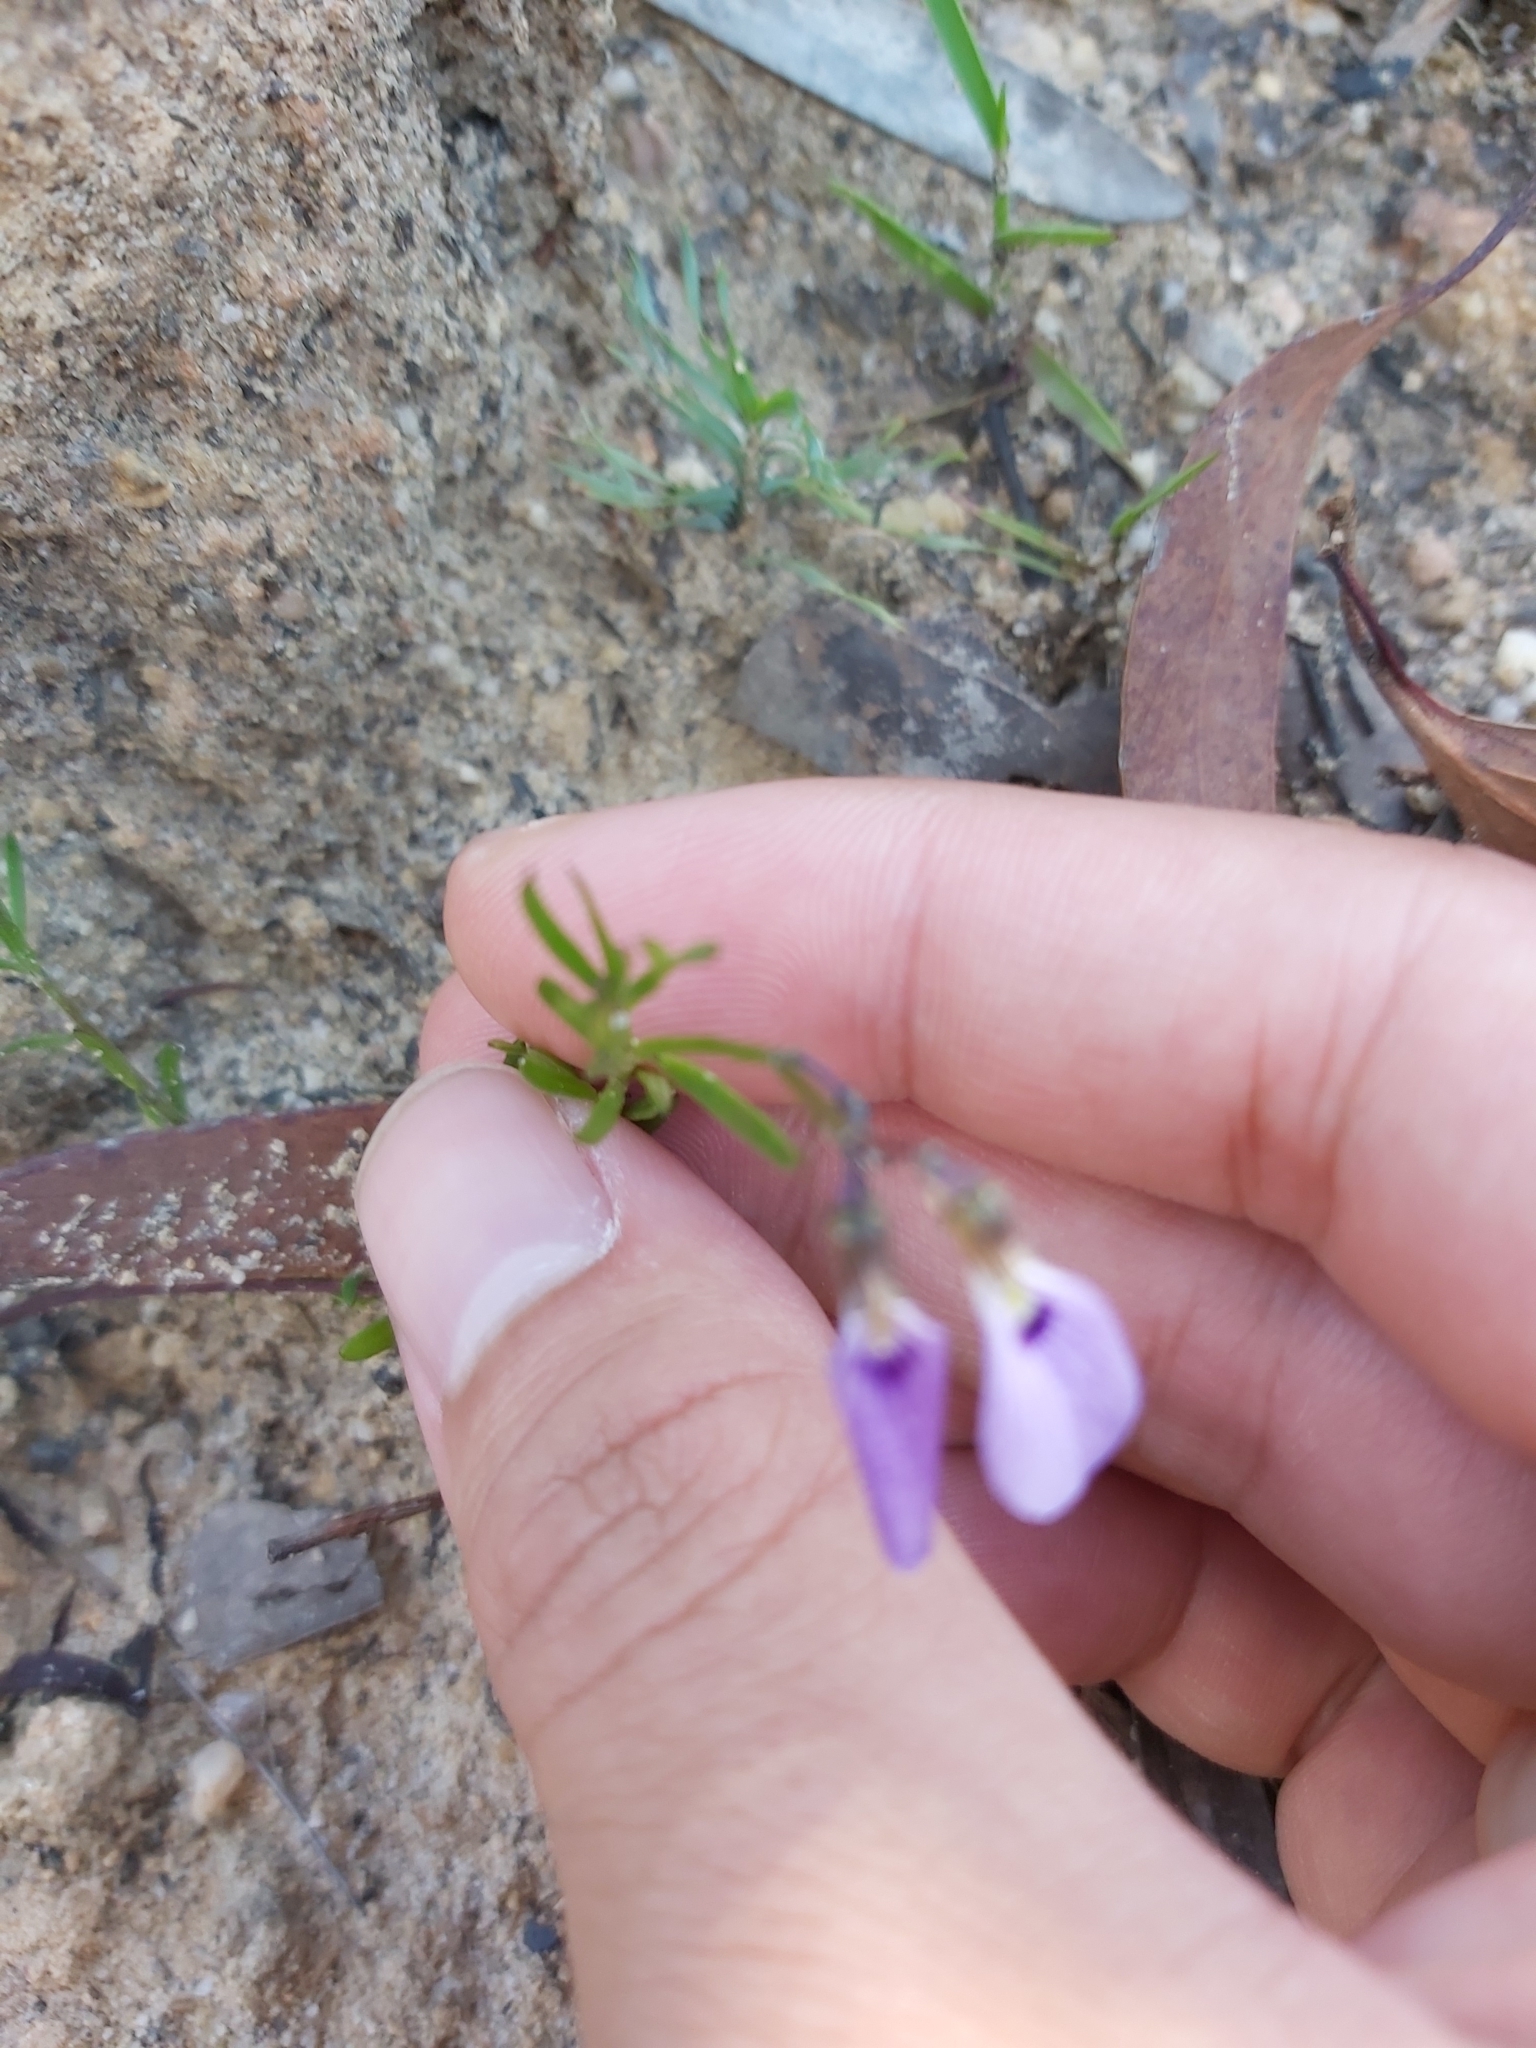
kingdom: Plantae
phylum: Tracheophyta
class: Magnoliopsida
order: Malpighiales
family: Violaceae
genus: Pigea
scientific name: Pigea monopetala
